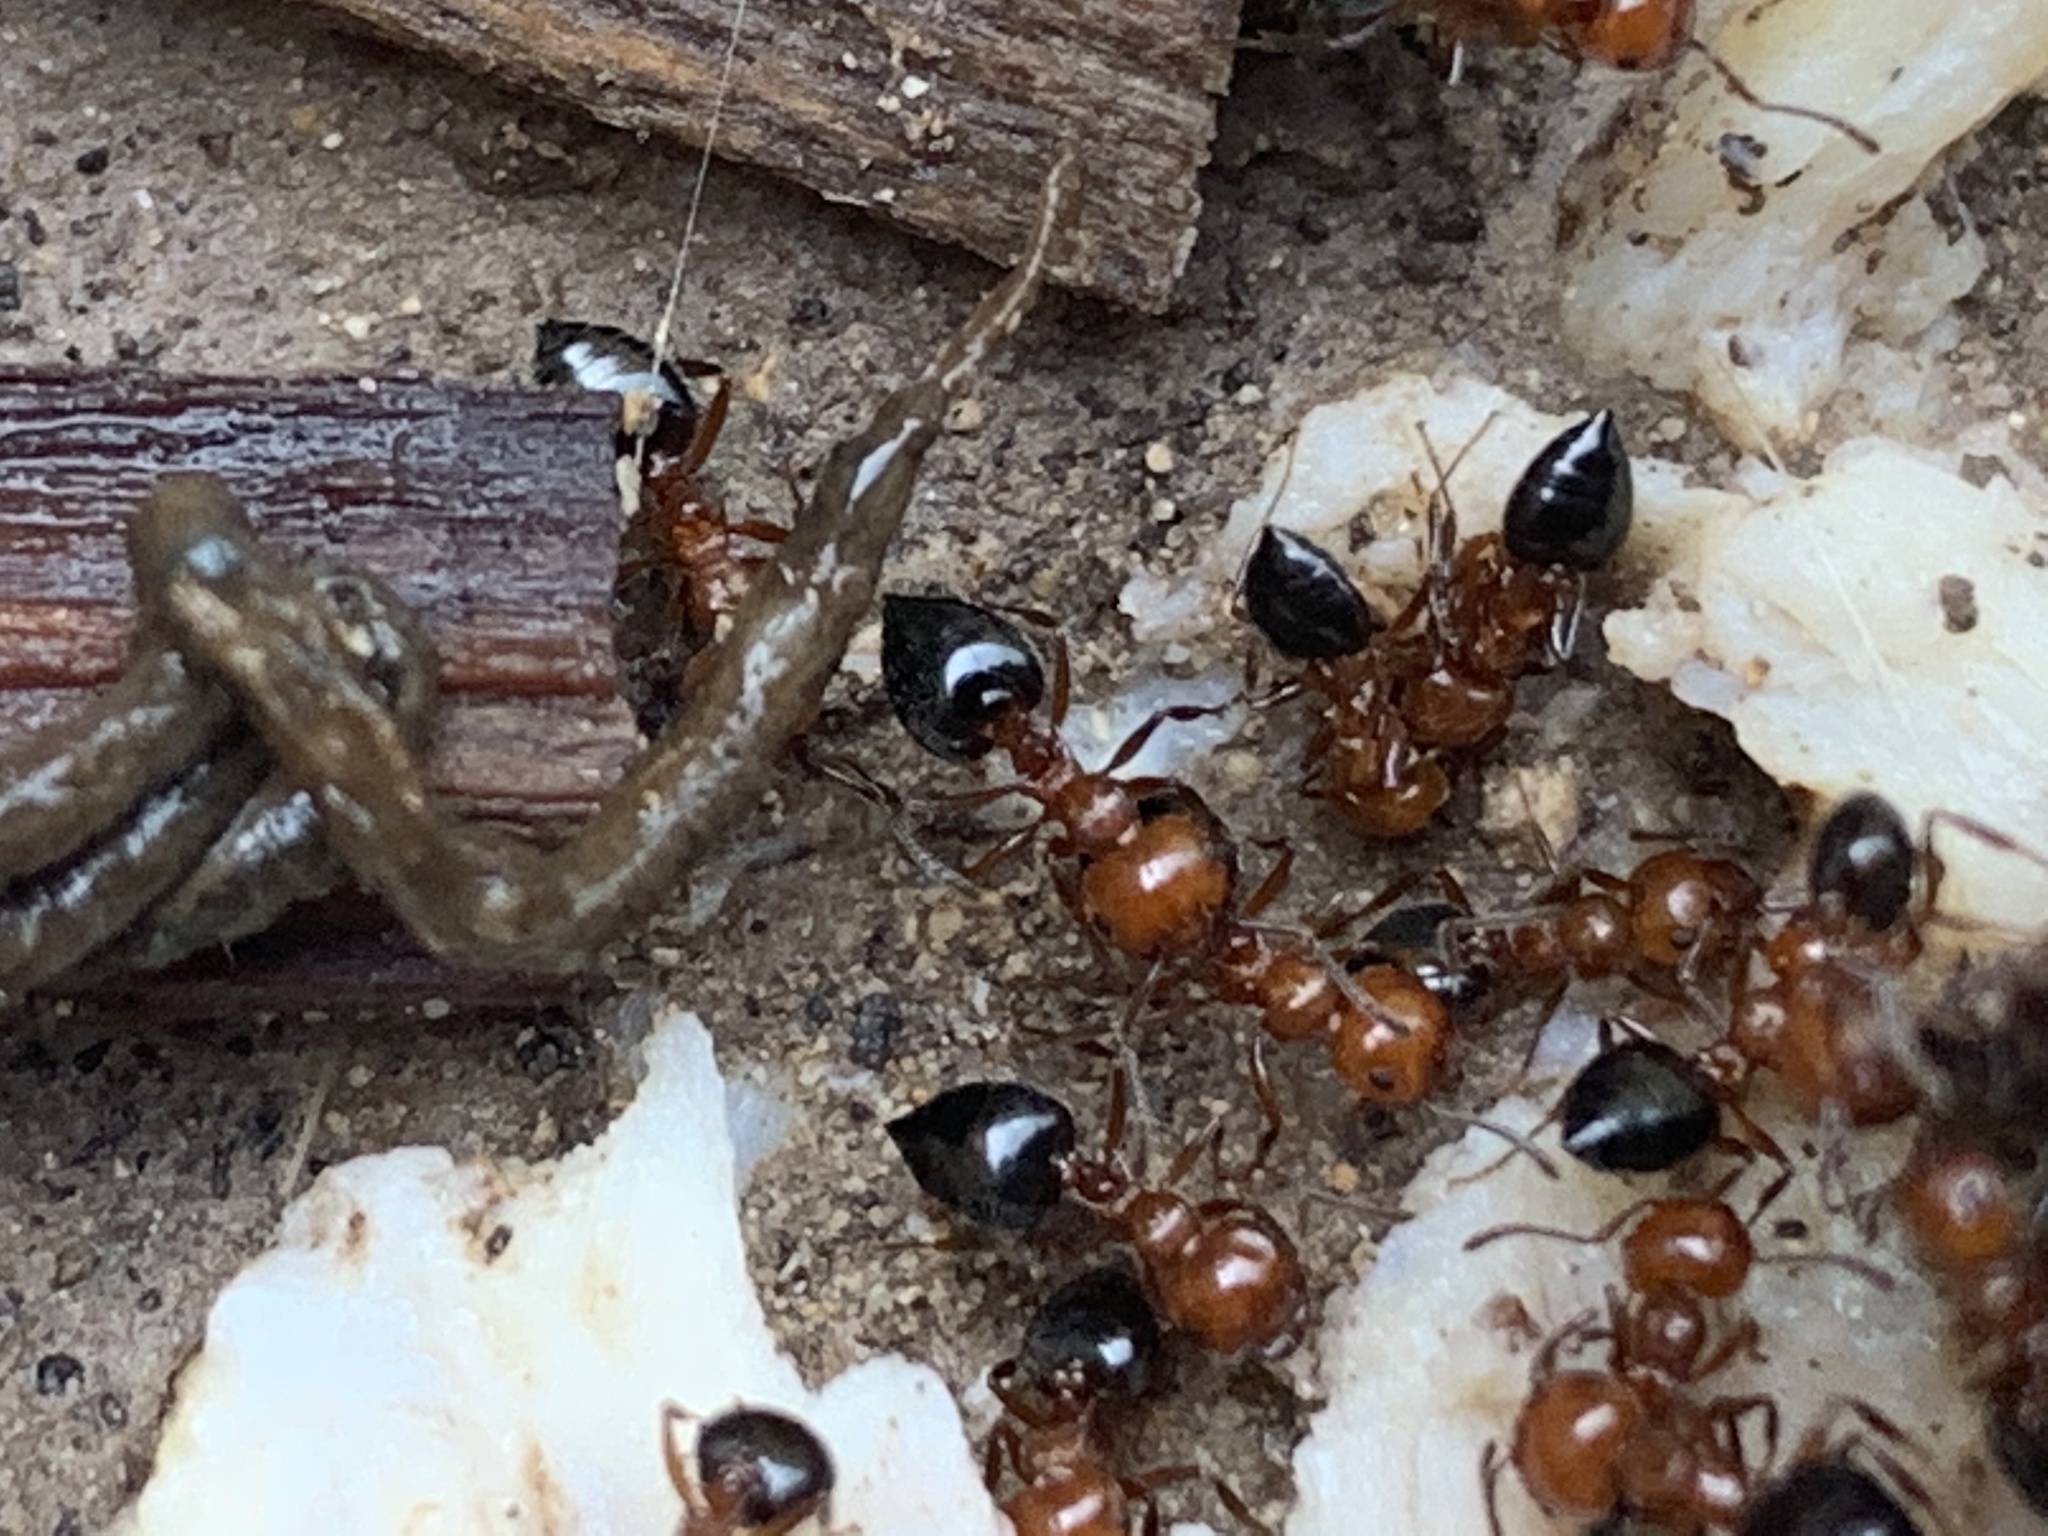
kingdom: Animalia
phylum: Arthropoda
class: Insecta
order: Hymenoptera
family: Formicidae
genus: Crematogaster
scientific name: Crematogaster laeviuscula
